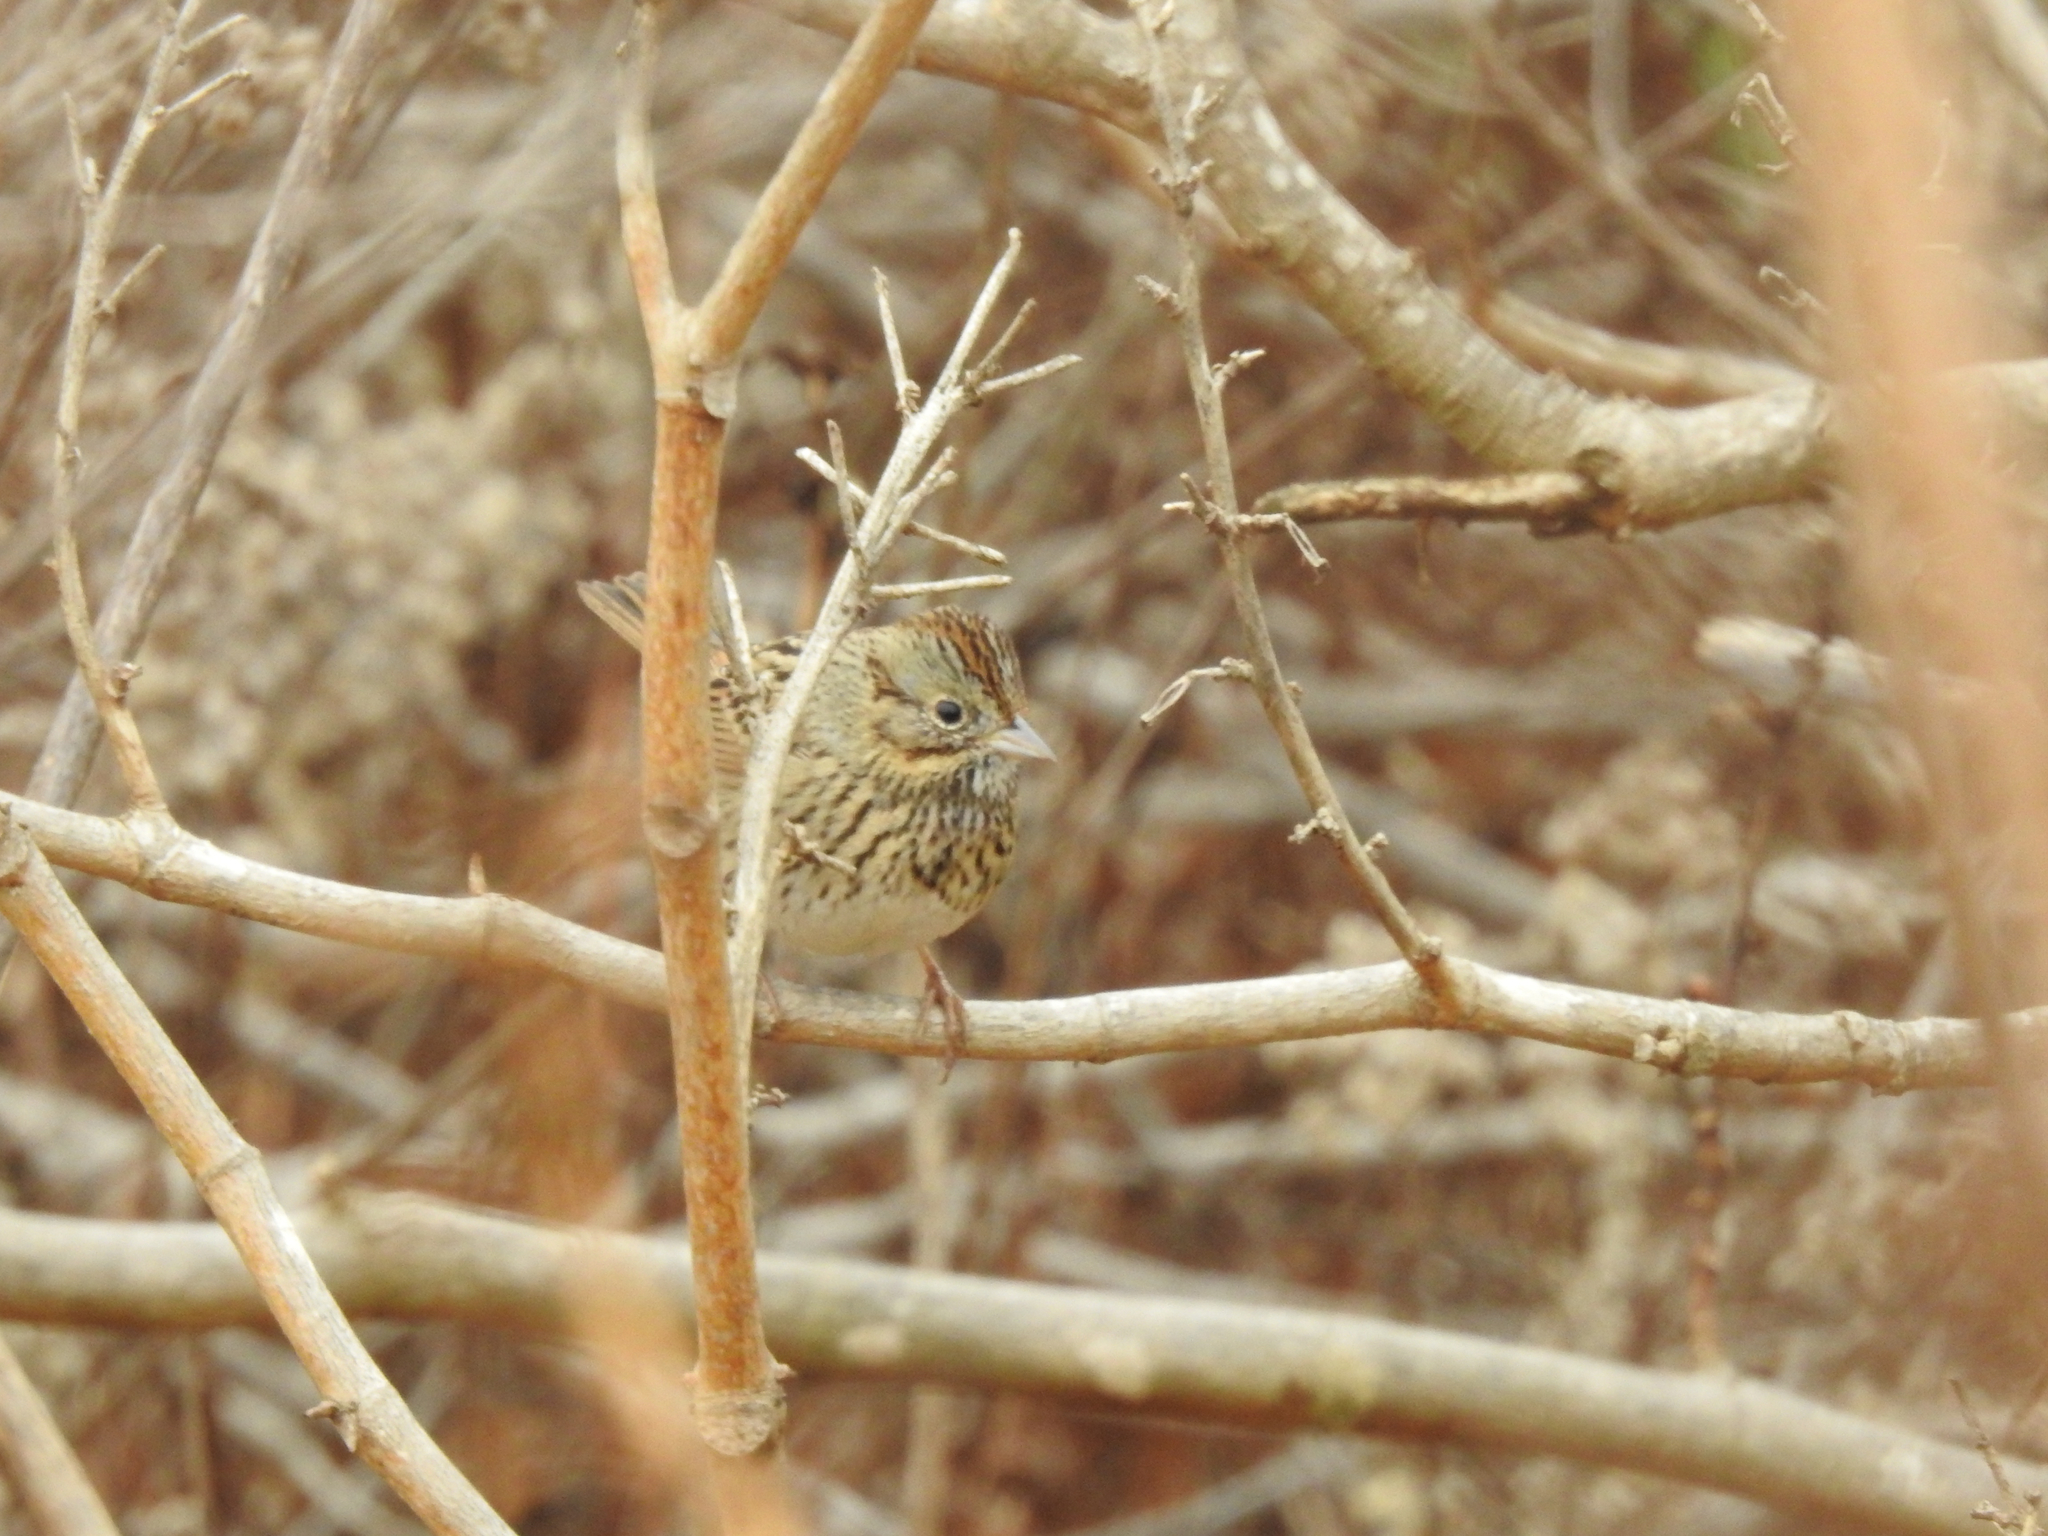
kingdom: Animalia
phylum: Chordata
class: Aves
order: Passeriformes
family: Passerellidae
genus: Melospiza
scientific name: Melospiza lincolnii
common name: Lincoln's sparrow
